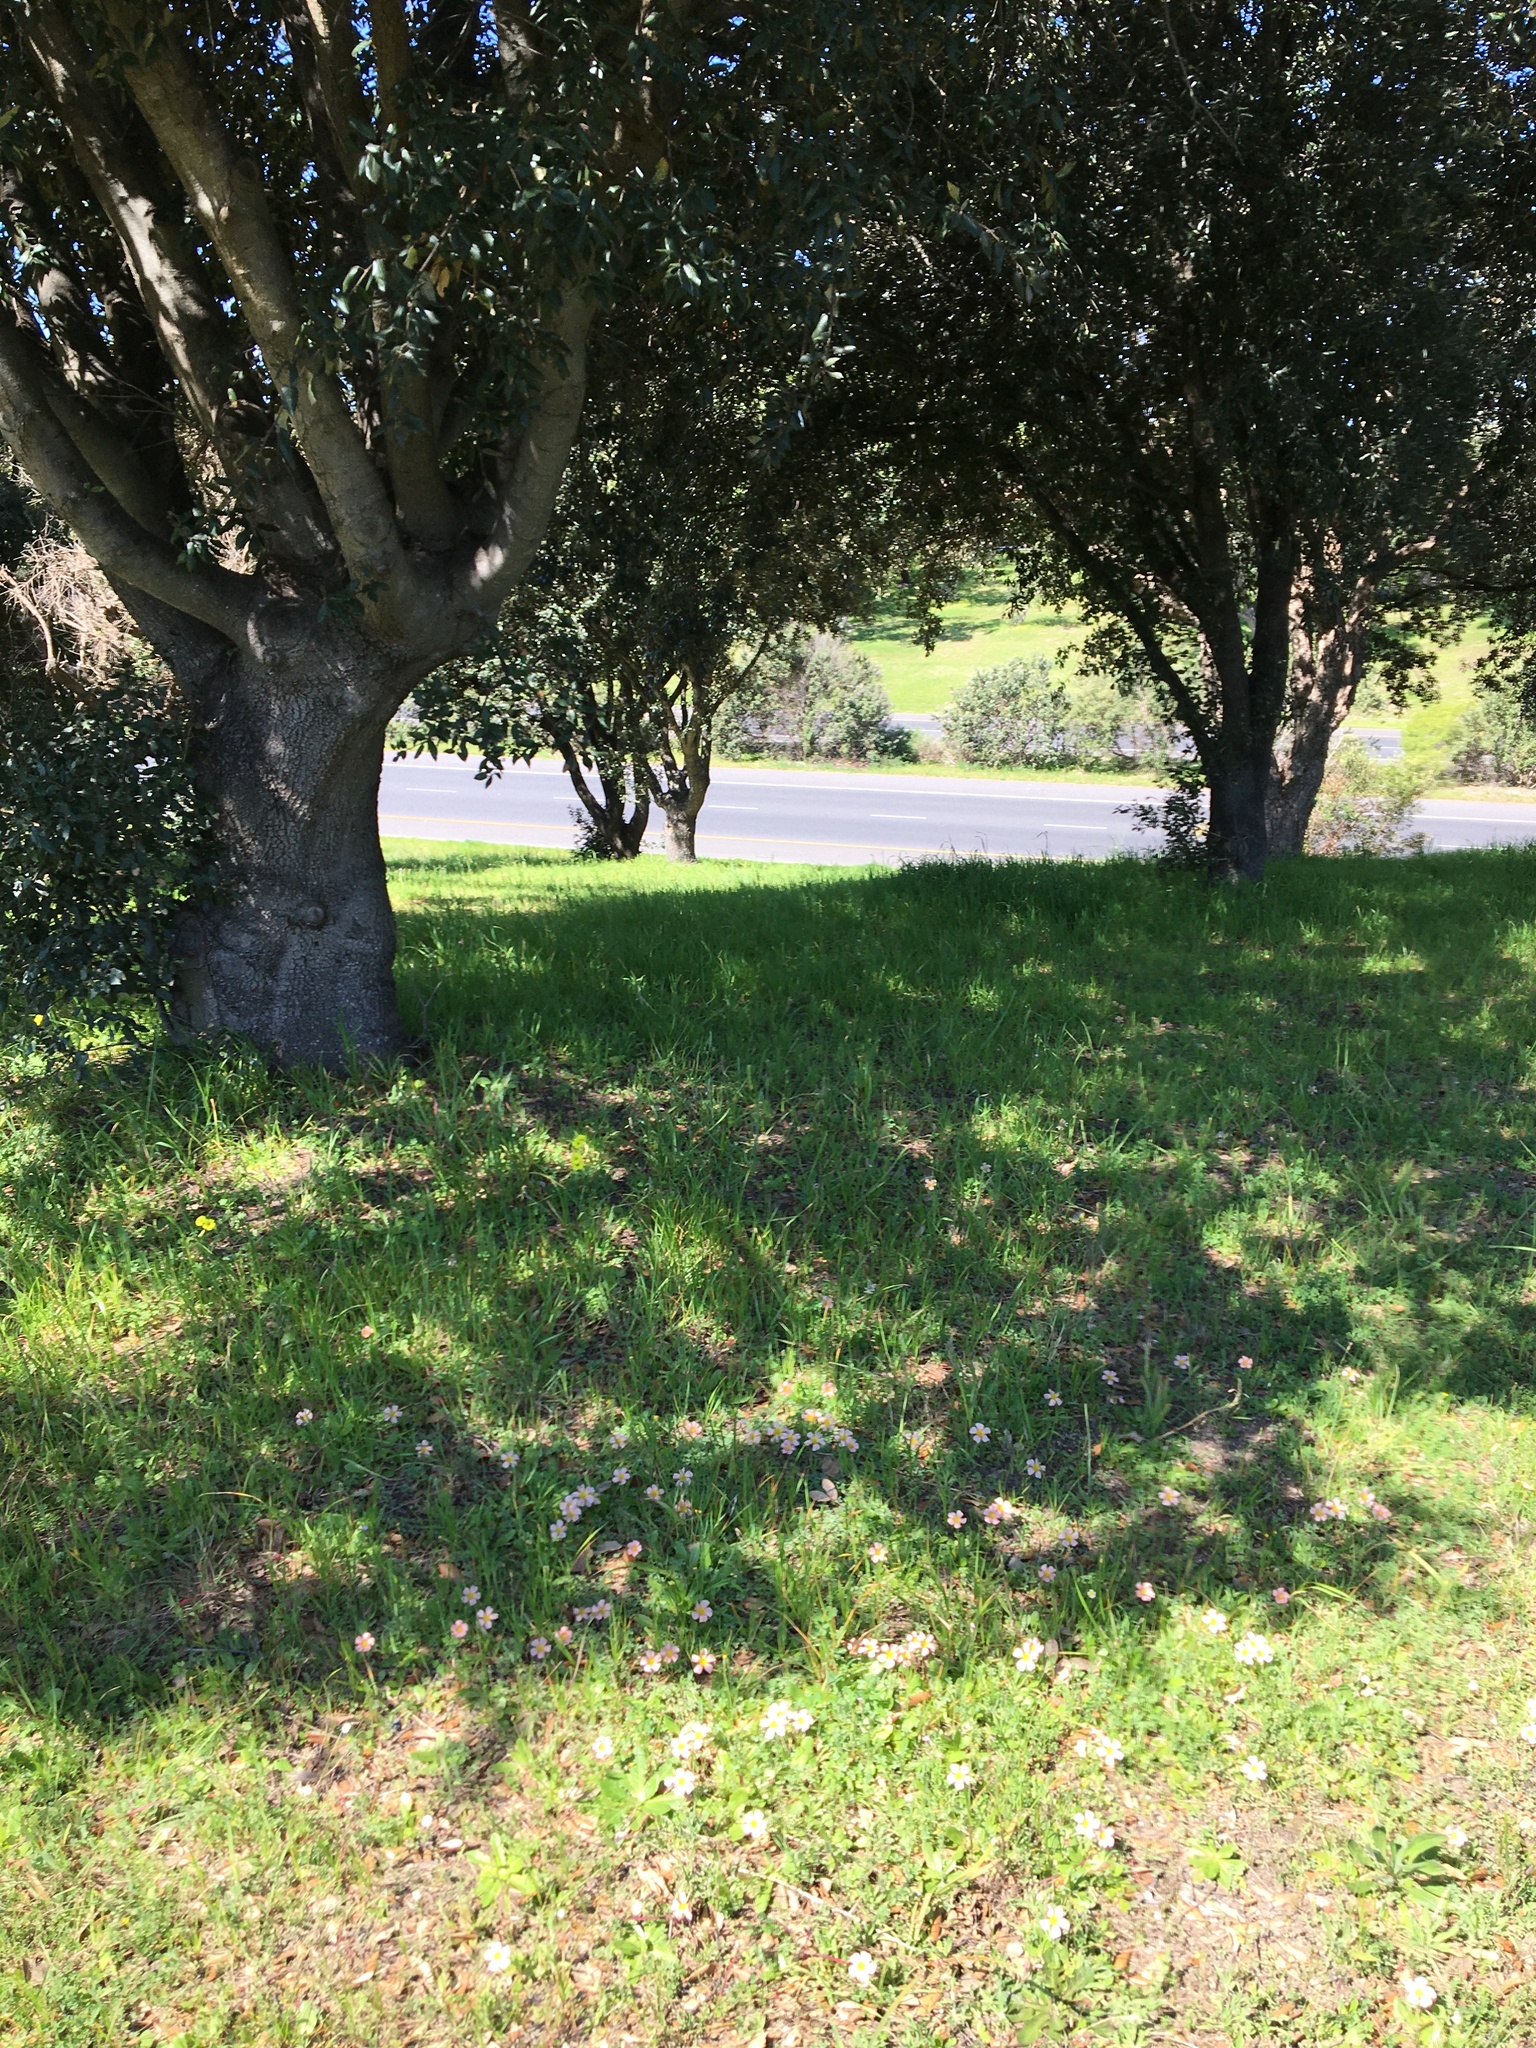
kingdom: Plantae
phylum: Tracheophyta
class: Magnoliopsida
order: Oxalidales
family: Oxalidaceae
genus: Oxalis
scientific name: Oxalis obtusa
